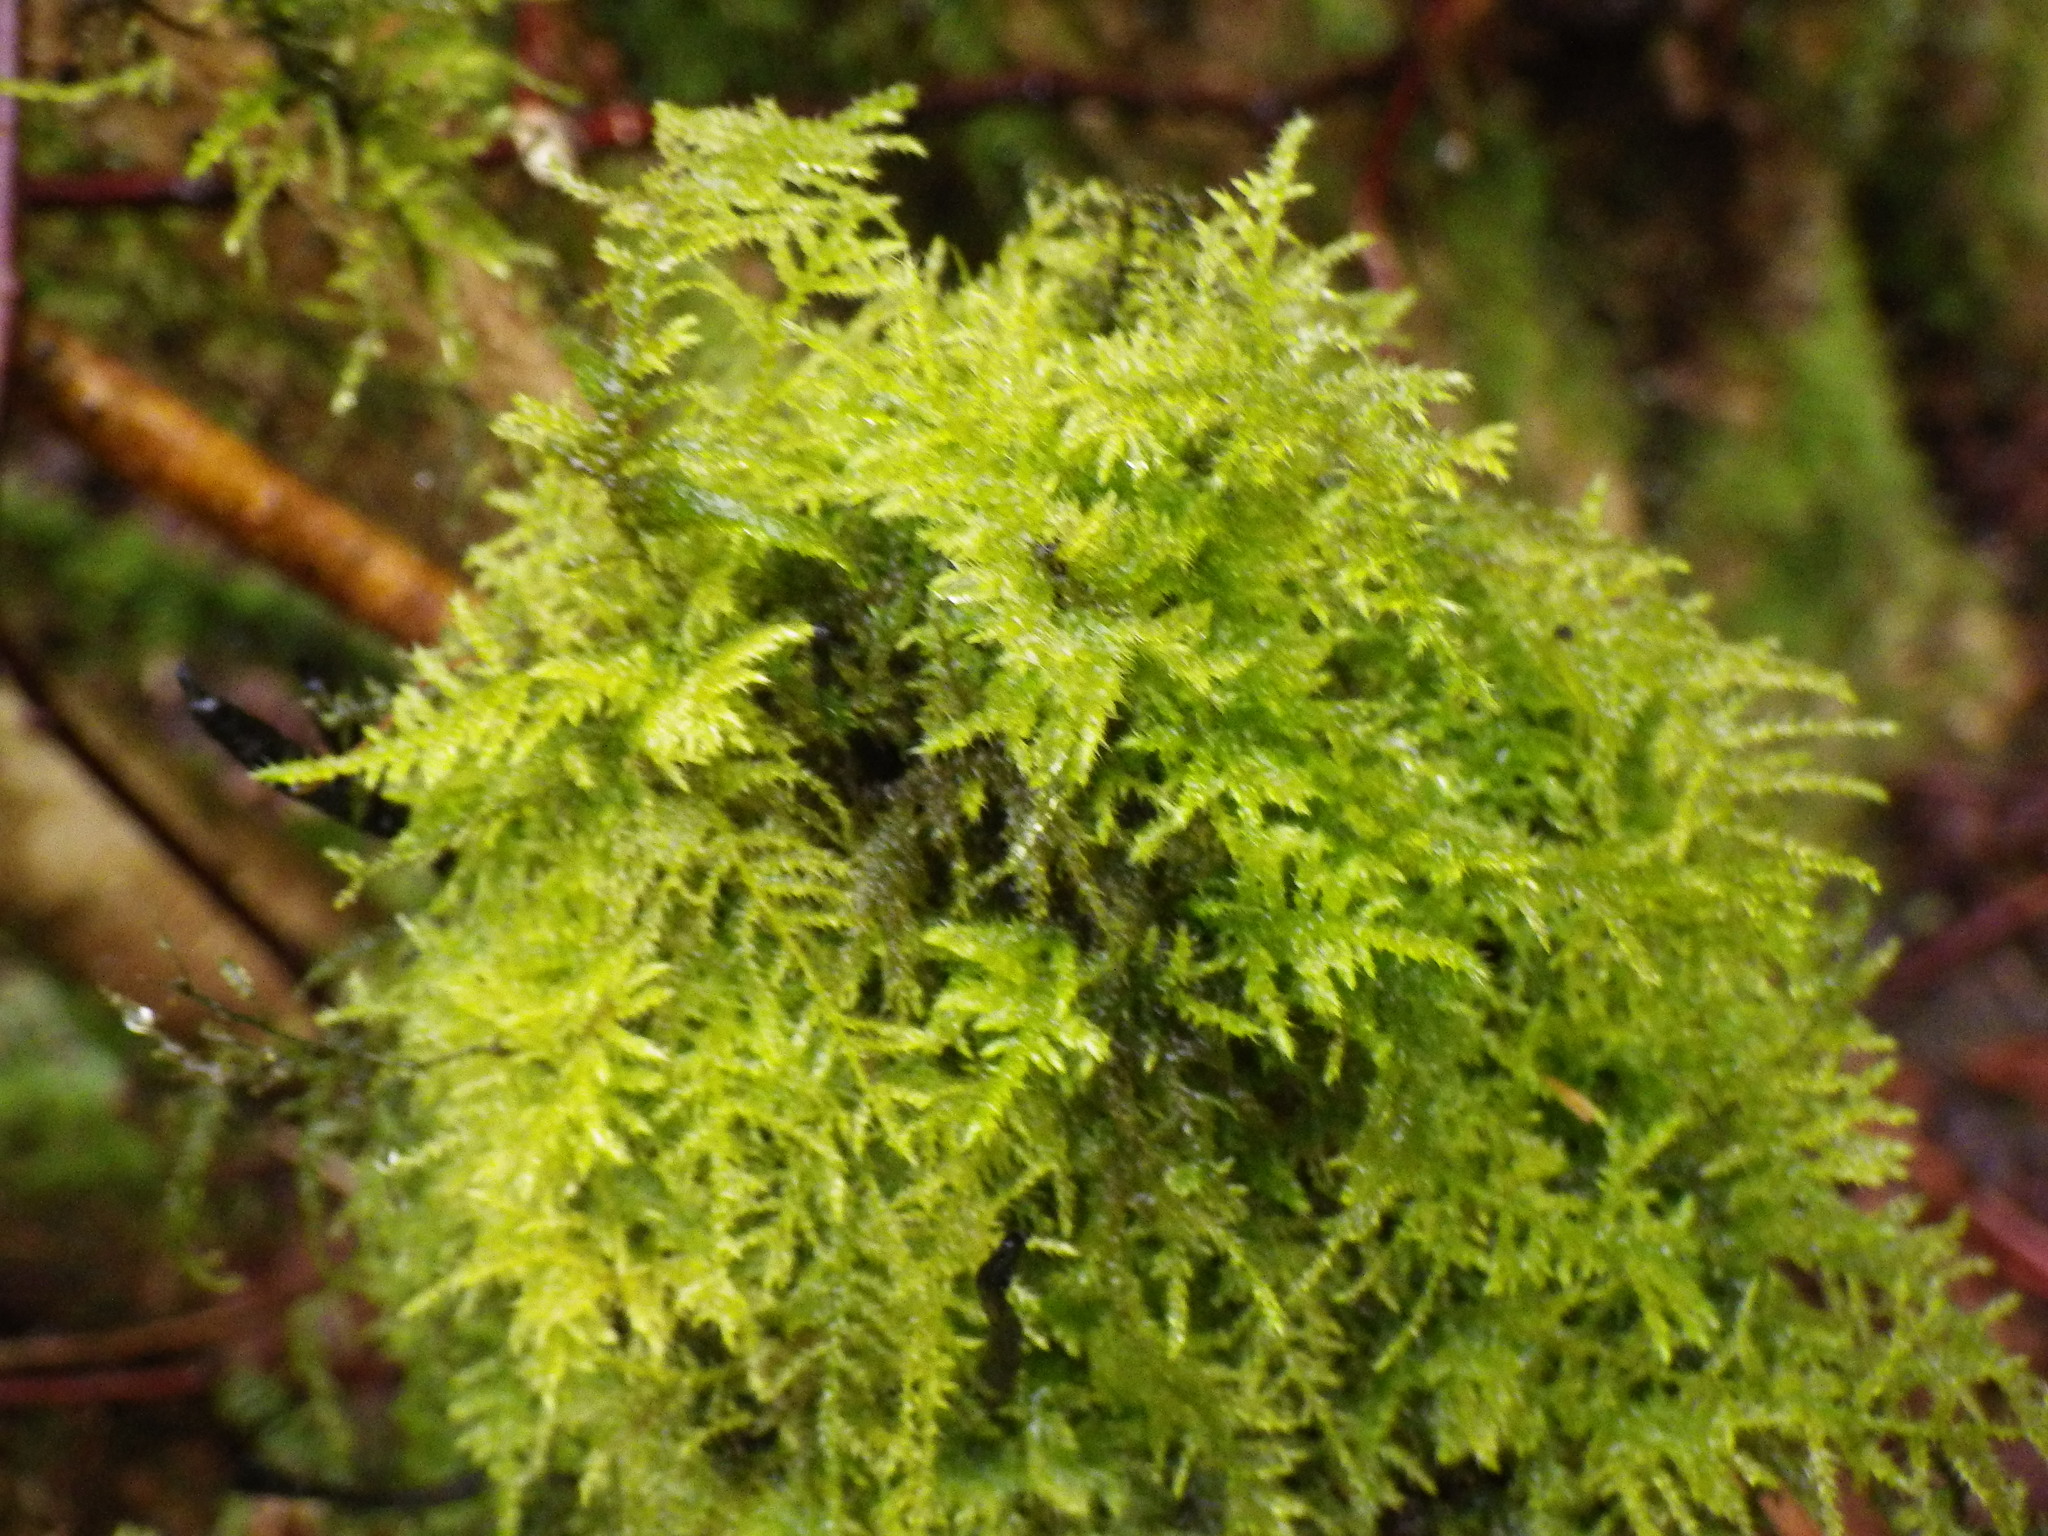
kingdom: Plantae
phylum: Bryophyta
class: Bryopsida
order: Hypnales
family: Brachytheciaceae
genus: Kindbergia
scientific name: Kindbergia praelonga
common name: Slender beaked moss
